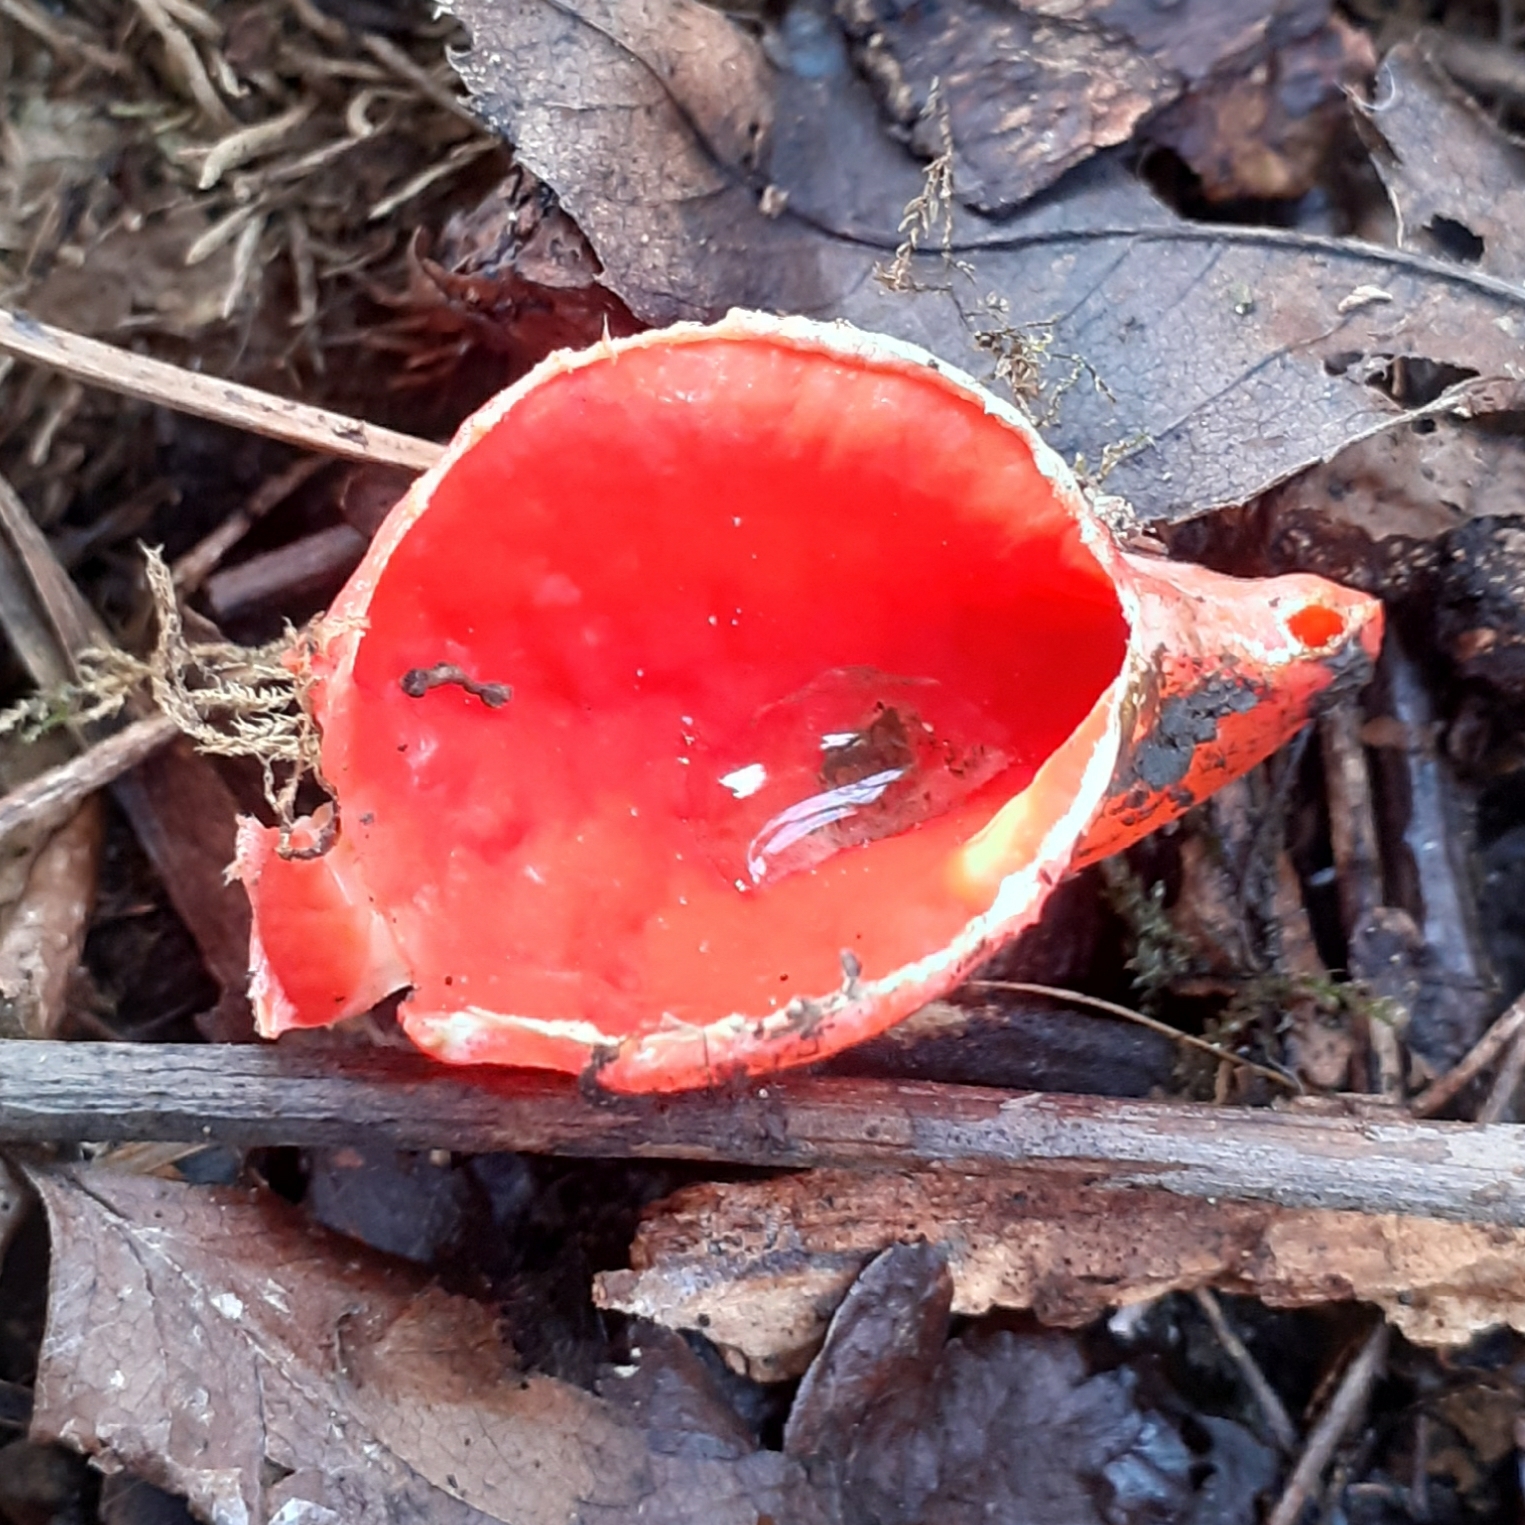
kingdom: Fungi
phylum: Ascomycota
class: Pezizomycetes
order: Pezizales
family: Sarcoscyphaceae
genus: Sarcoscypha
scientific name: Sarcoscypha
